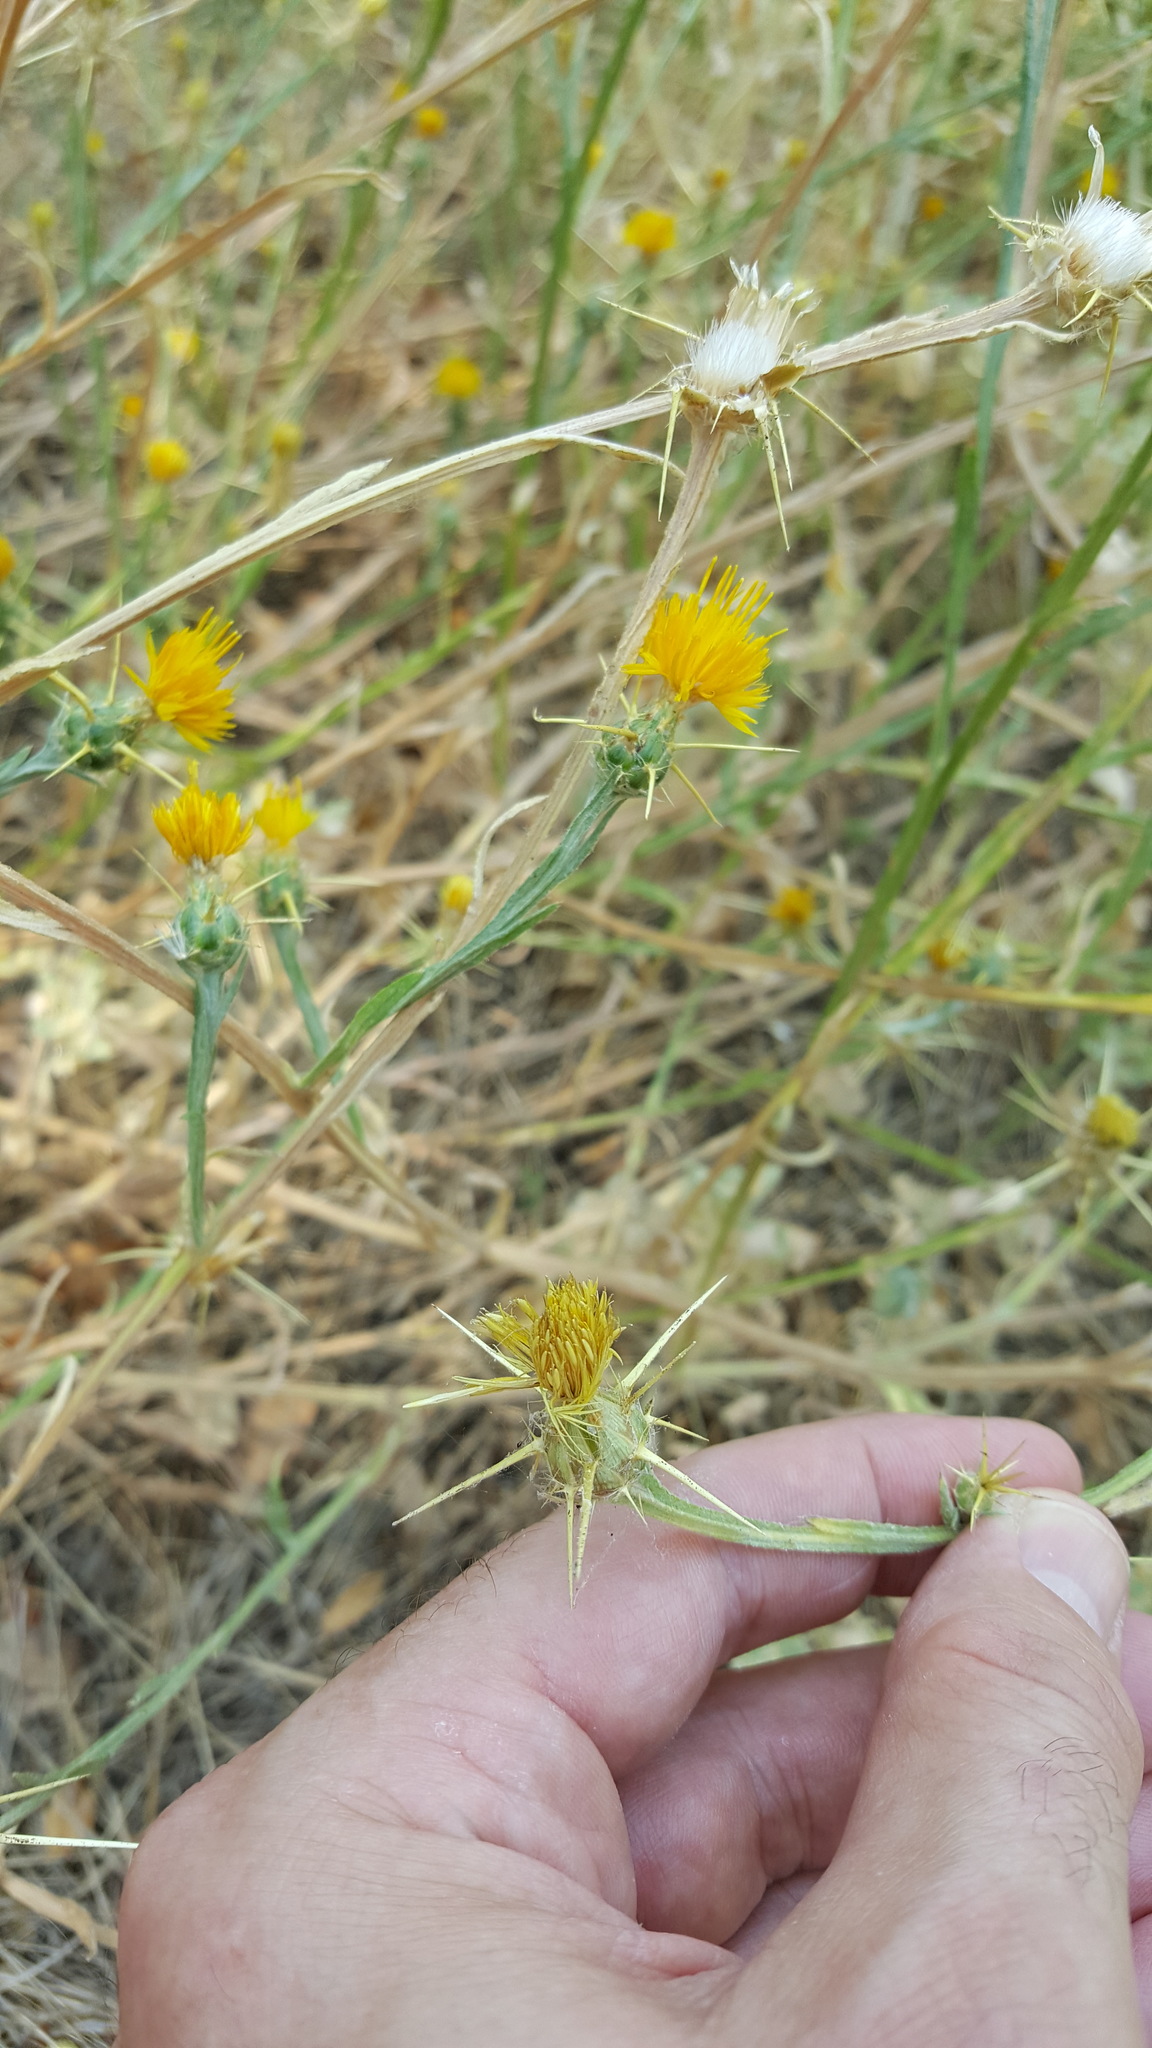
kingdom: Plantae
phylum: Tracheophyta
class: Magnoliopsida
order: Asterales
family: Asteraceae
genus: Centaurea
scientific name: Centaurea solstitialis
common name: Yellow star-thistle
